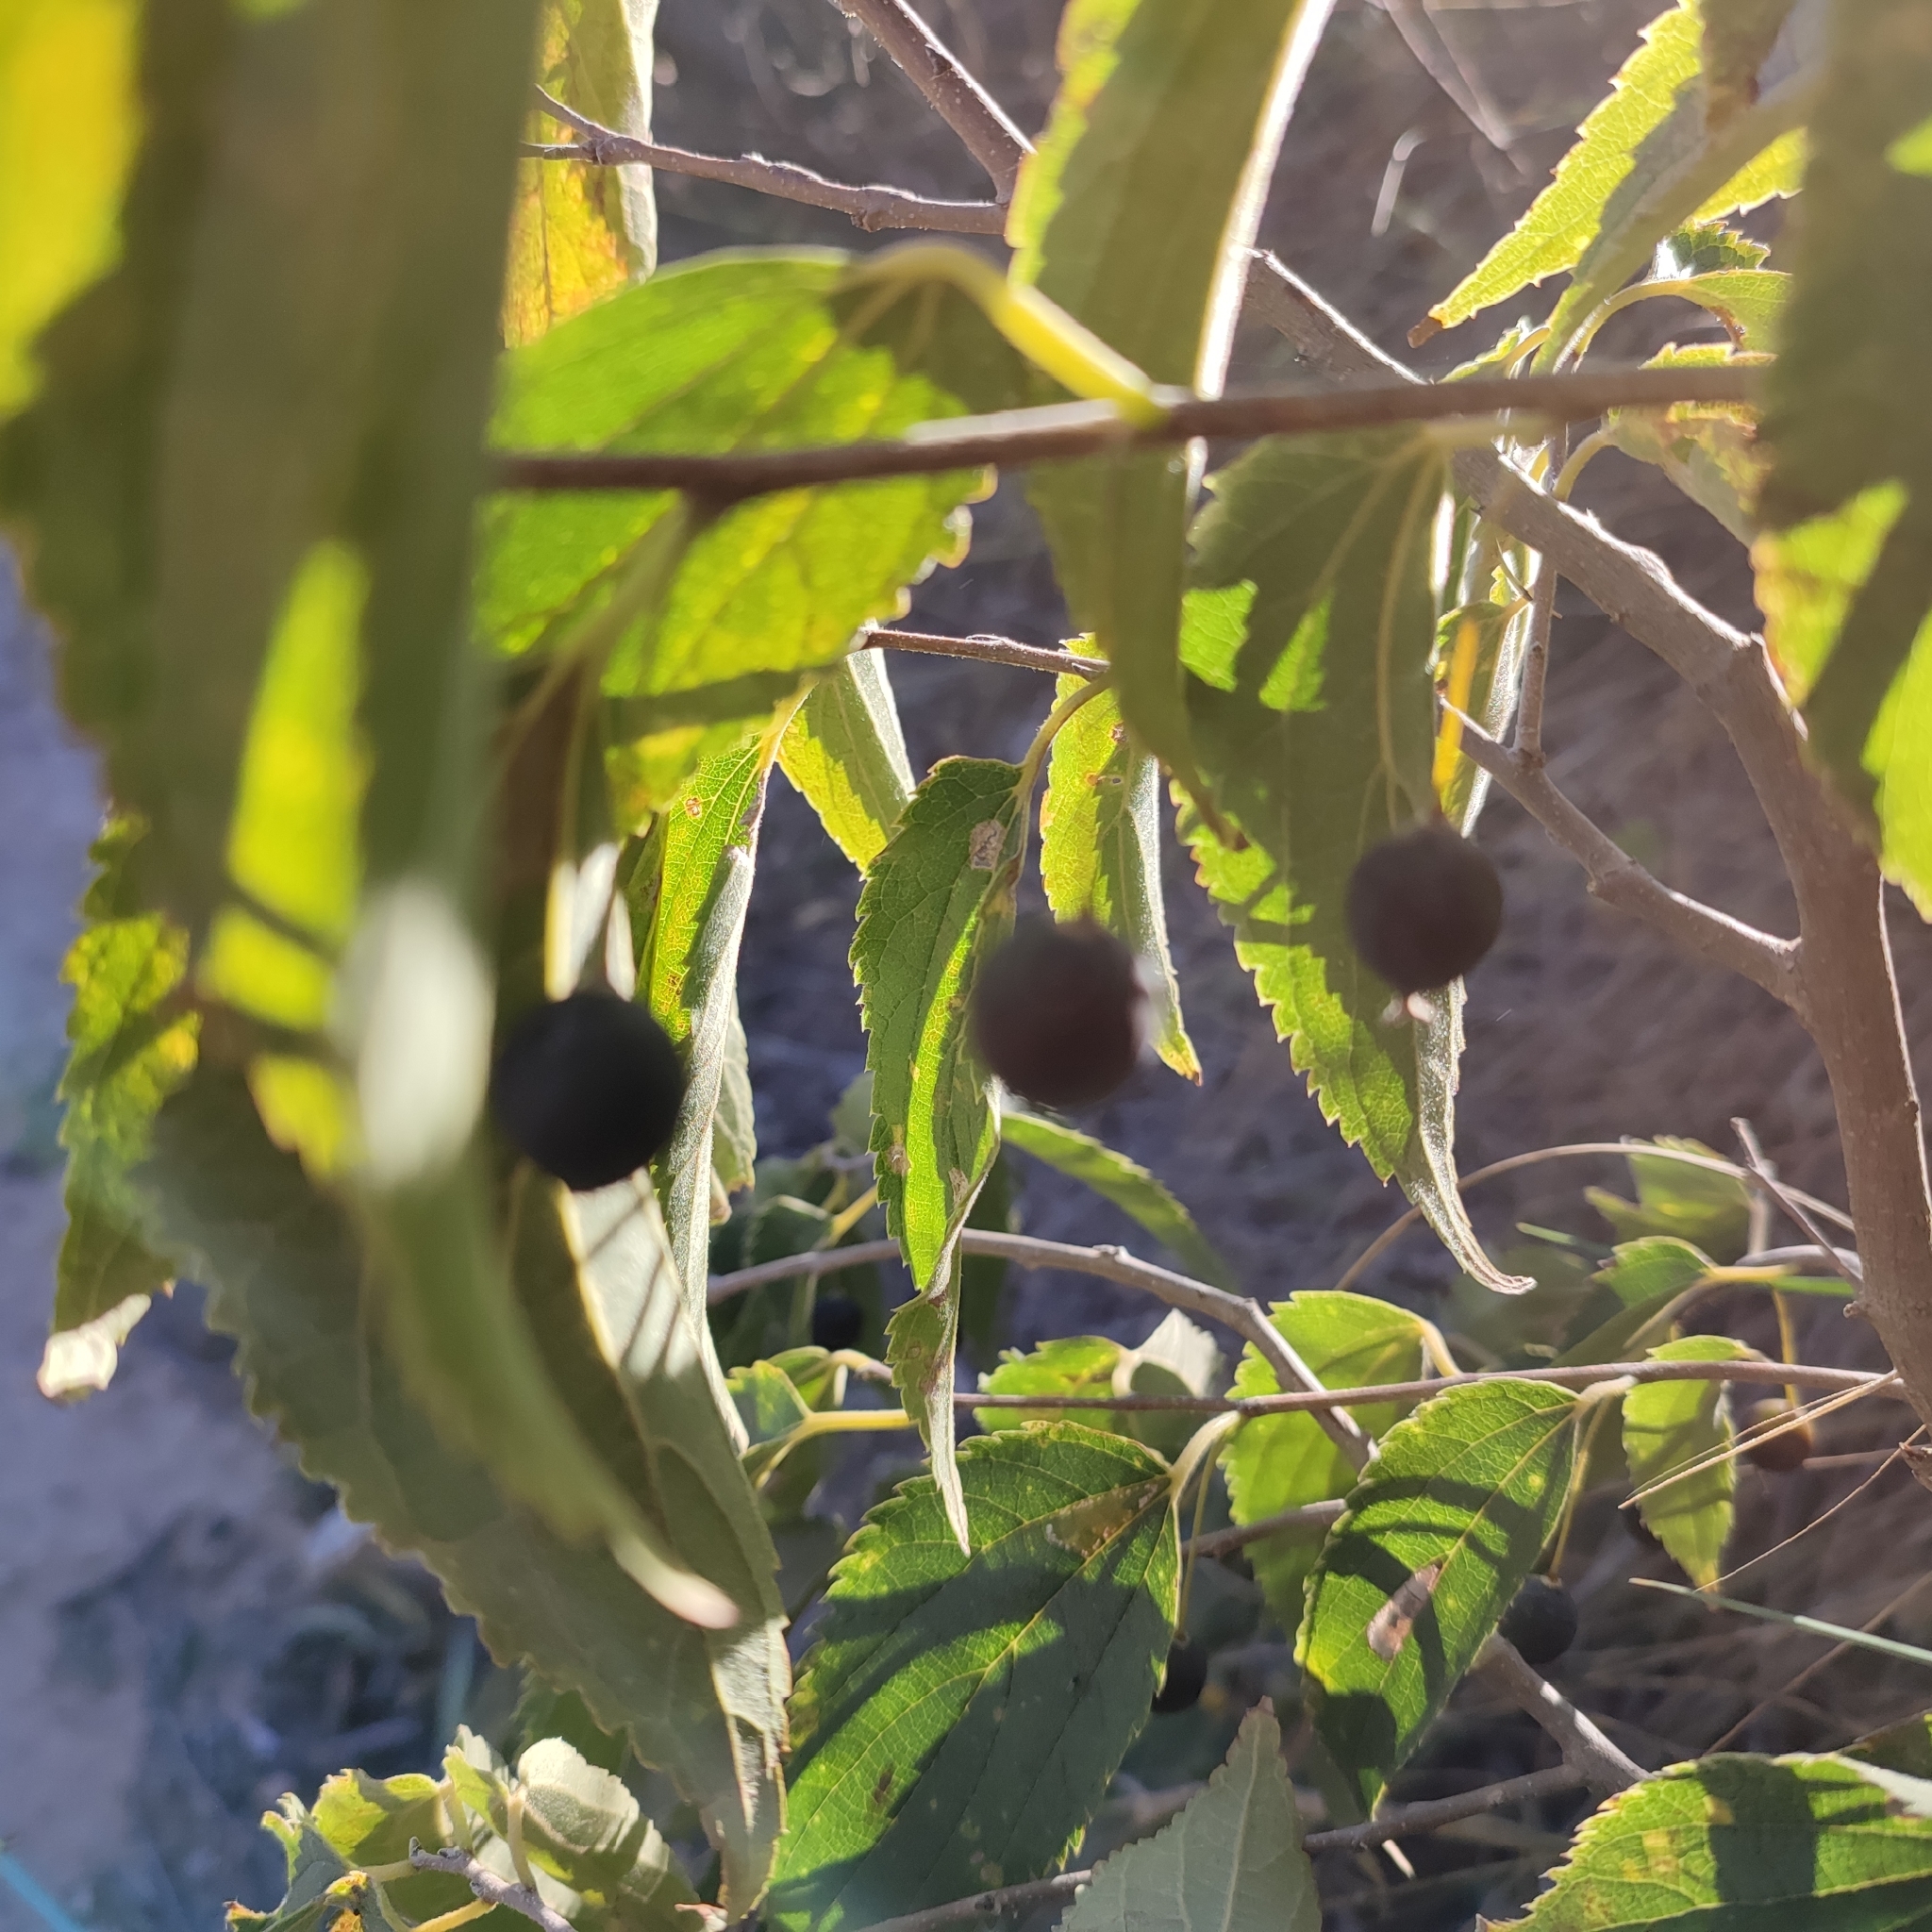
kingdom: Plantae
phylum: Tracheophyta
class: Magnoliopsida
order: Rosales
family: Cannabaceae
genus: Celtis
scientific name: Celtis australis
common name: European hackberry
